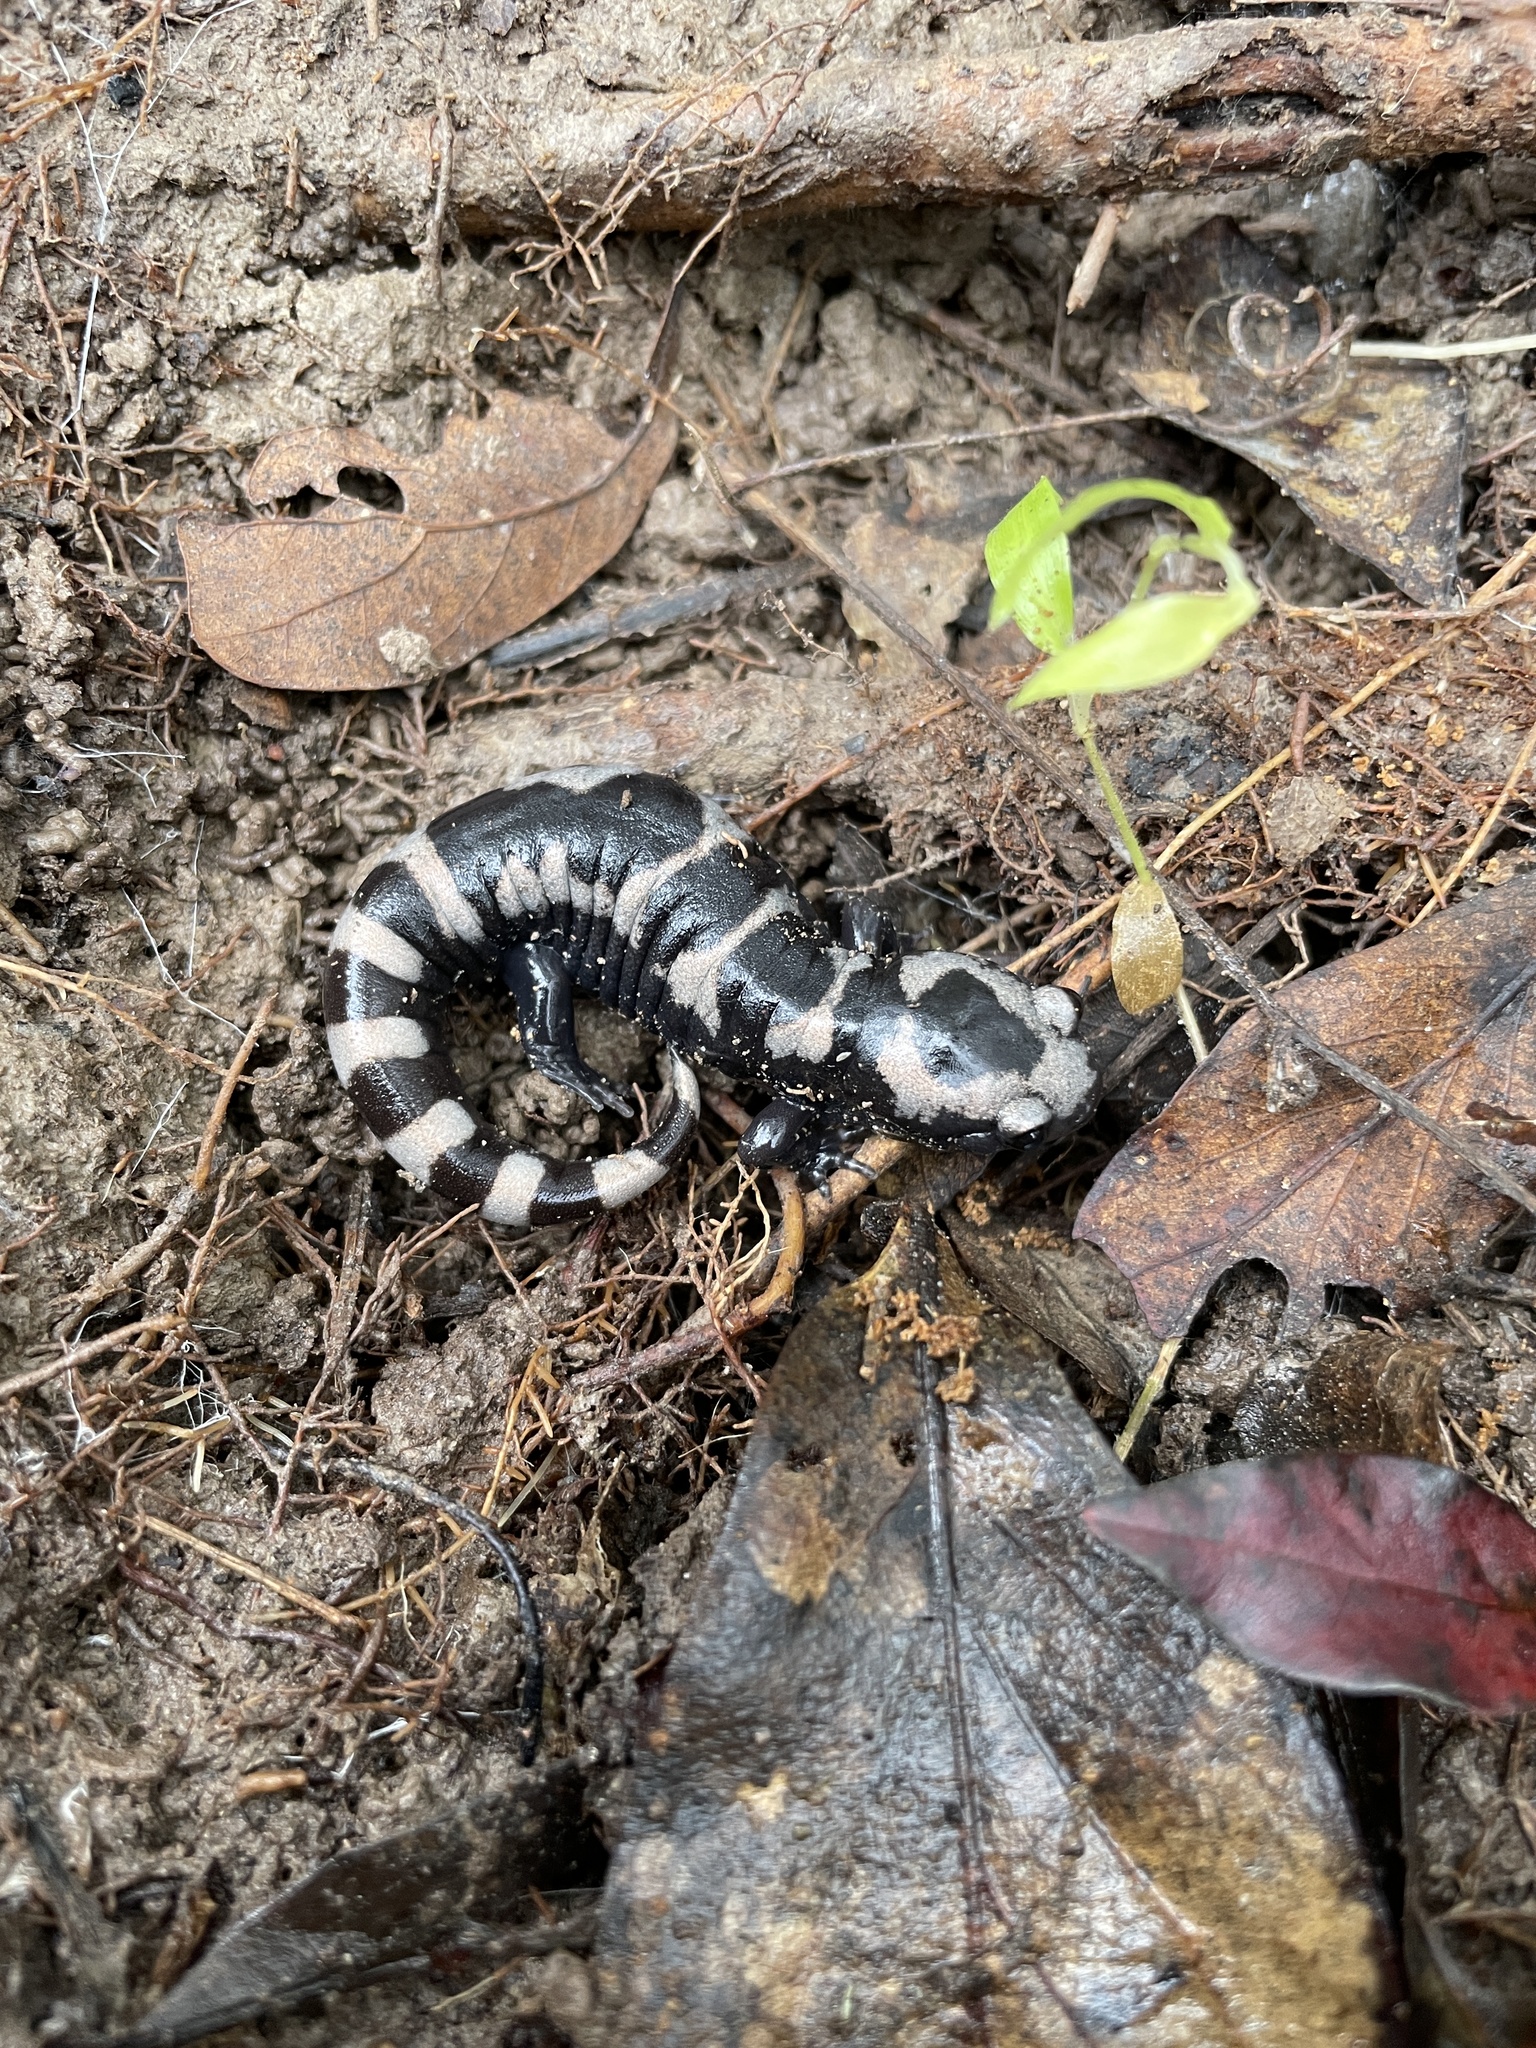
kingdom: Animalia
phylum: Chordata
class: Amphibia
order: Caudata
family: Ambystomatidae
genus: Ambystoma
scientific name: Ambystoma opacum
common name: Marbled salamander
